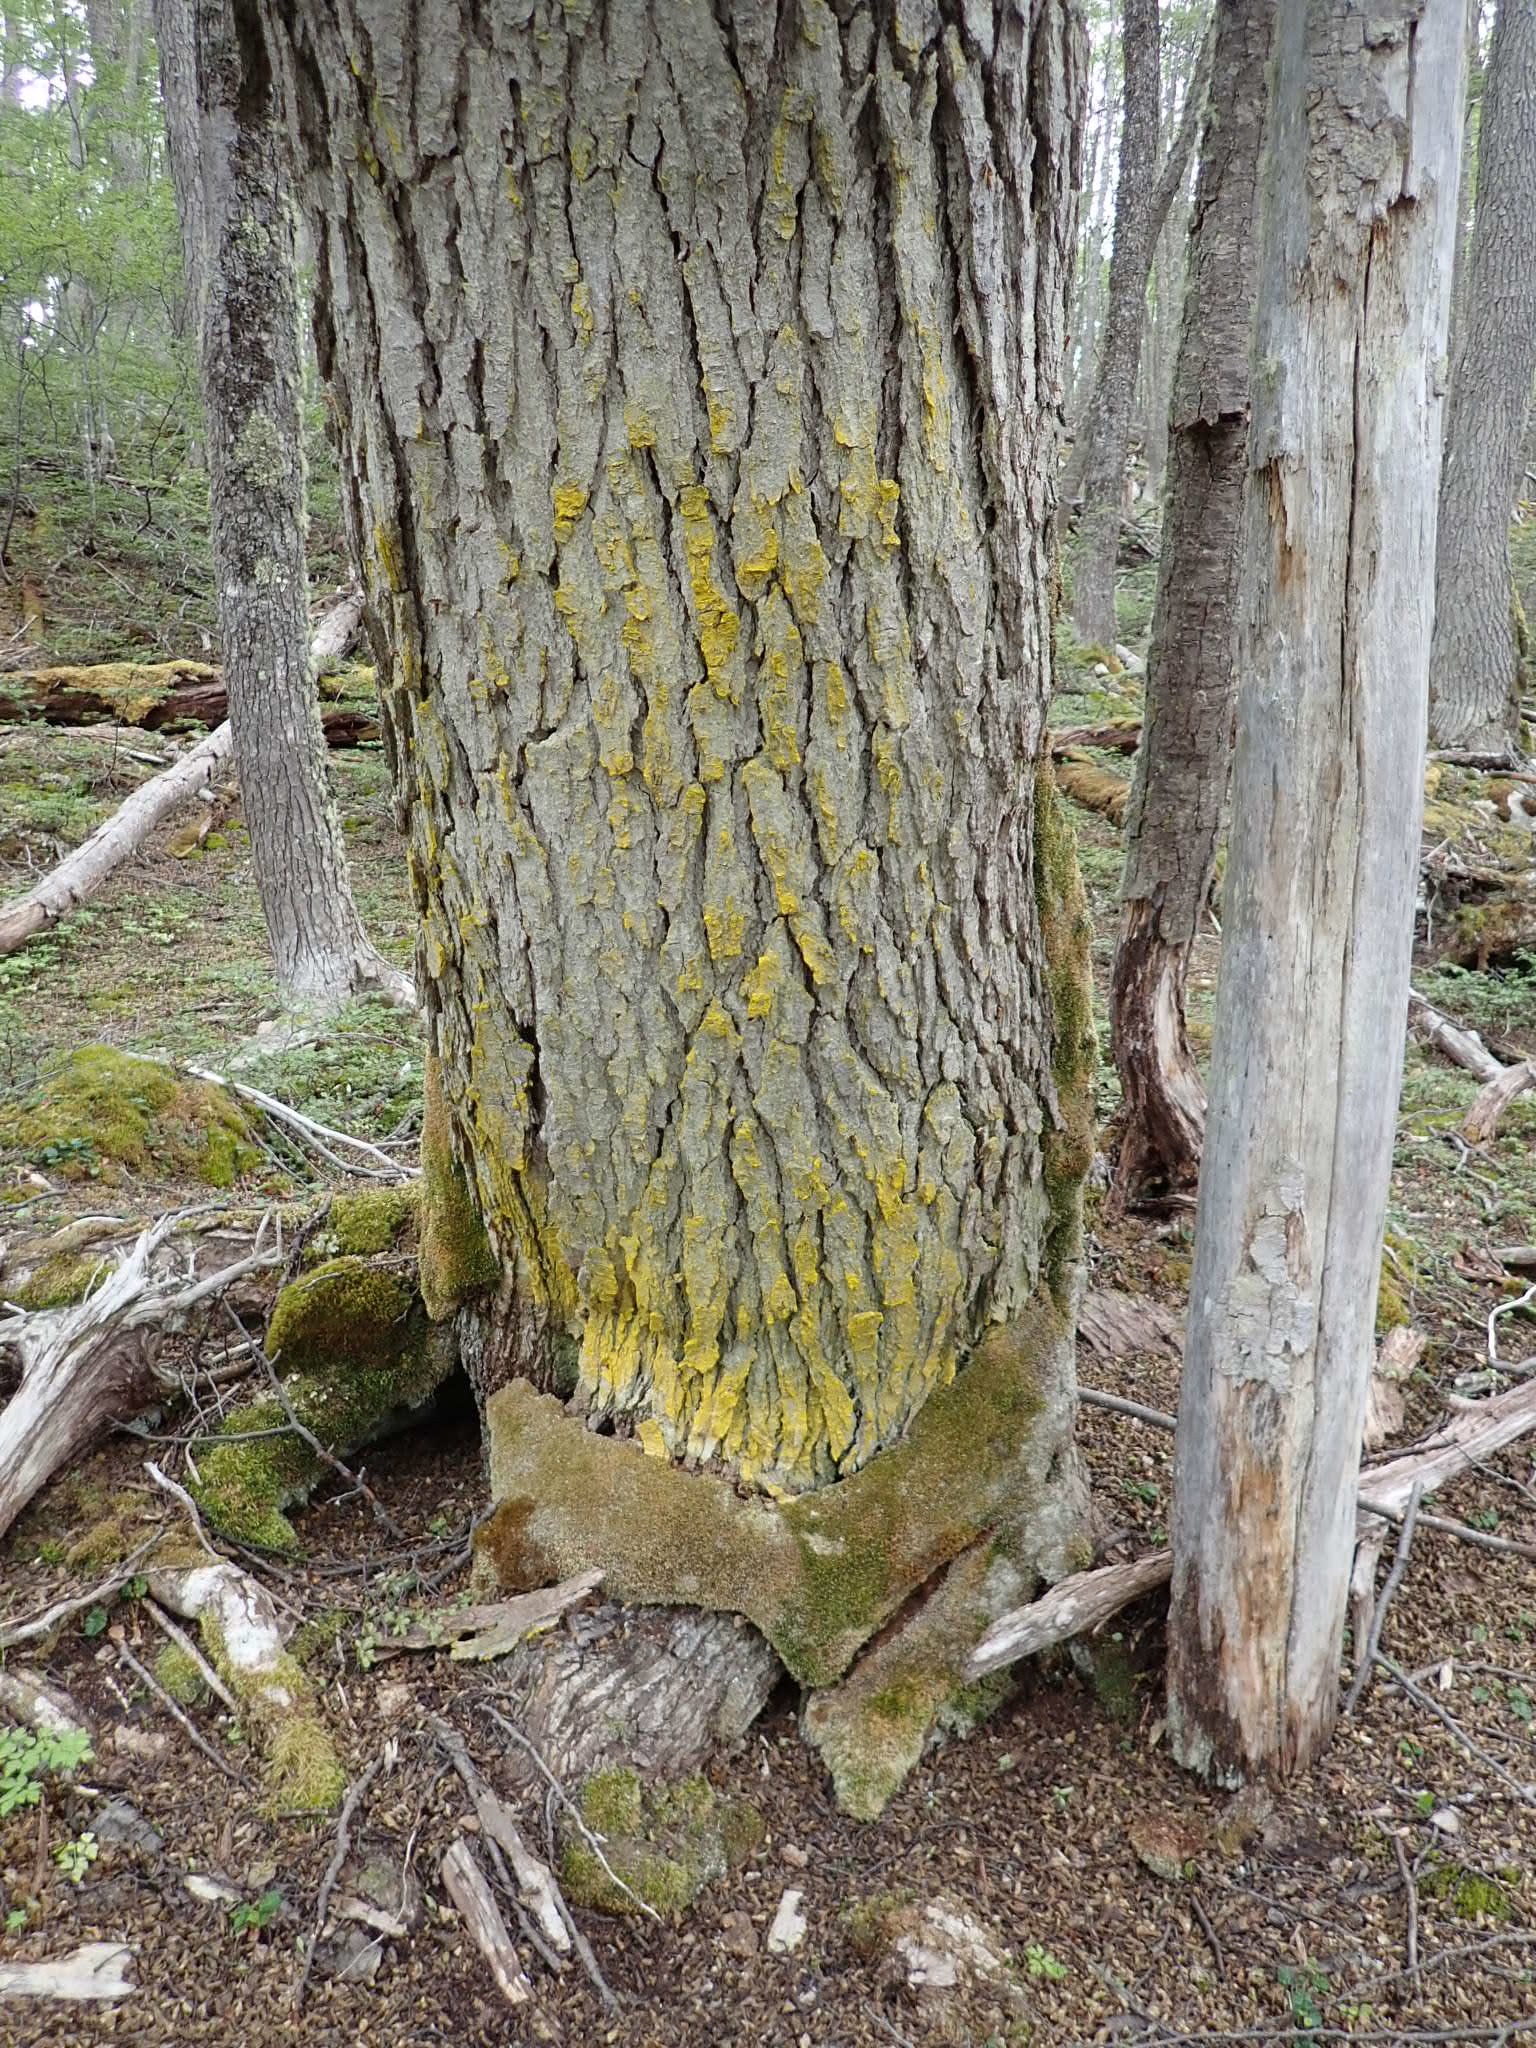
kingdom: Fungi
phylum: Ascomycota
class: Arthoniomycetes
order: Arthoniales
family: Chrysotrichaceae
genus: Chrysothrix
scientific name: Chrysothrix candelaris
